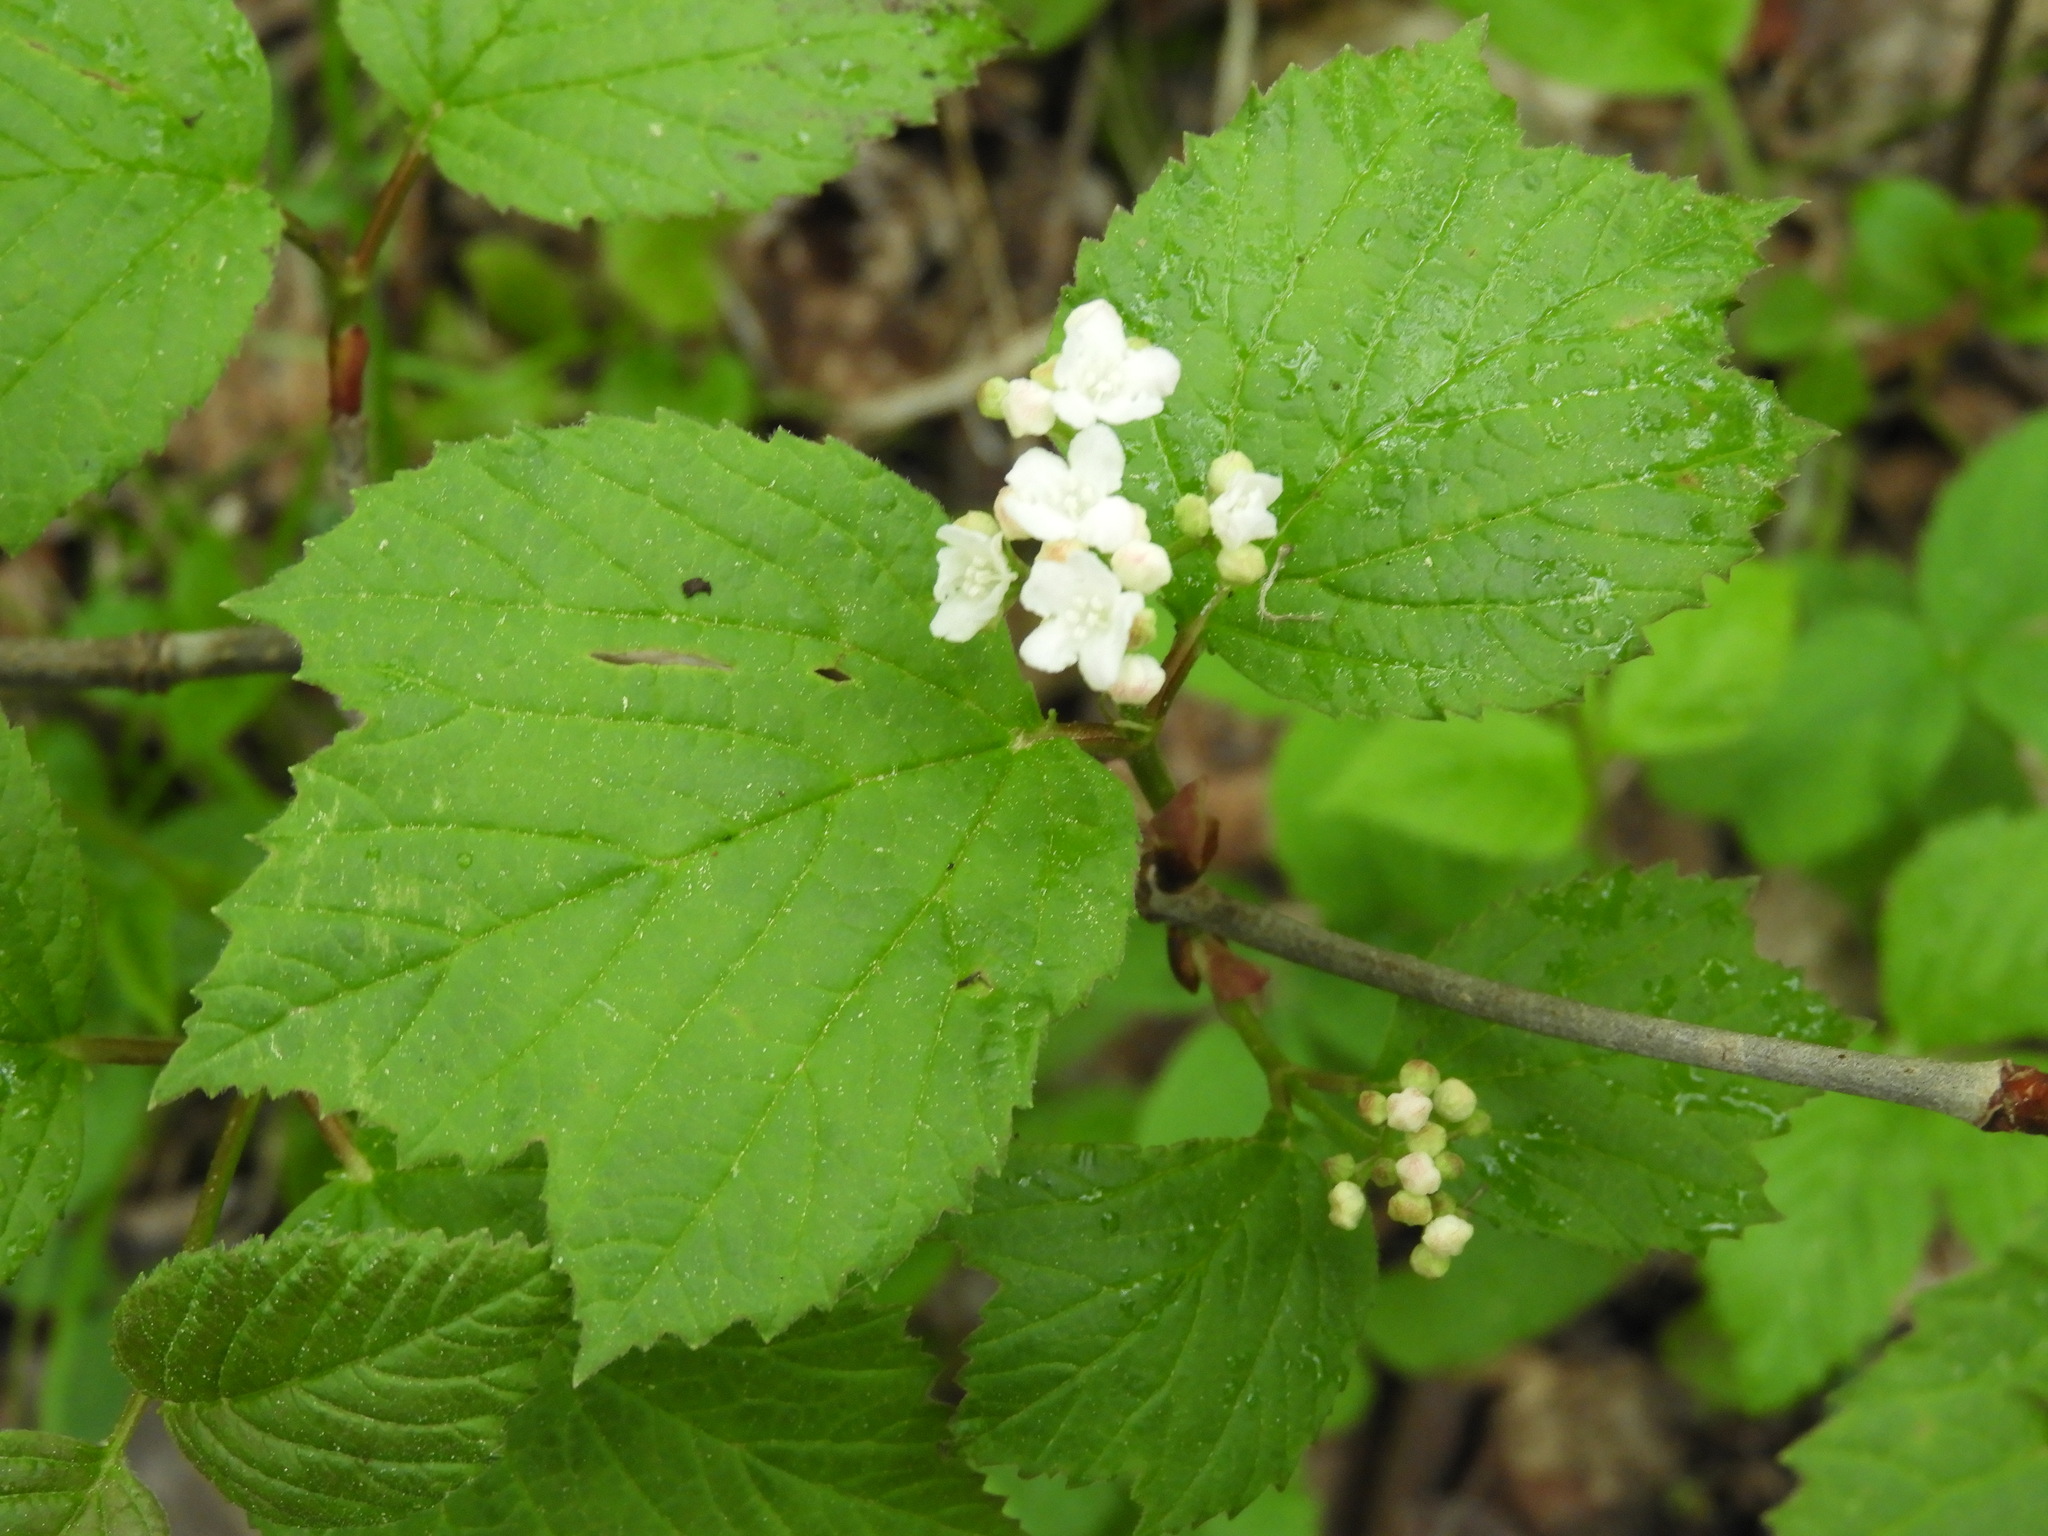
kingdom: Plantae
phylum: Tracheophyta
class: Magnoliopsida
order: Dipsacales
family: Viburnaceae
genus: Viburnum
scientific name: Viburnum edule
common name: Mooseberry
